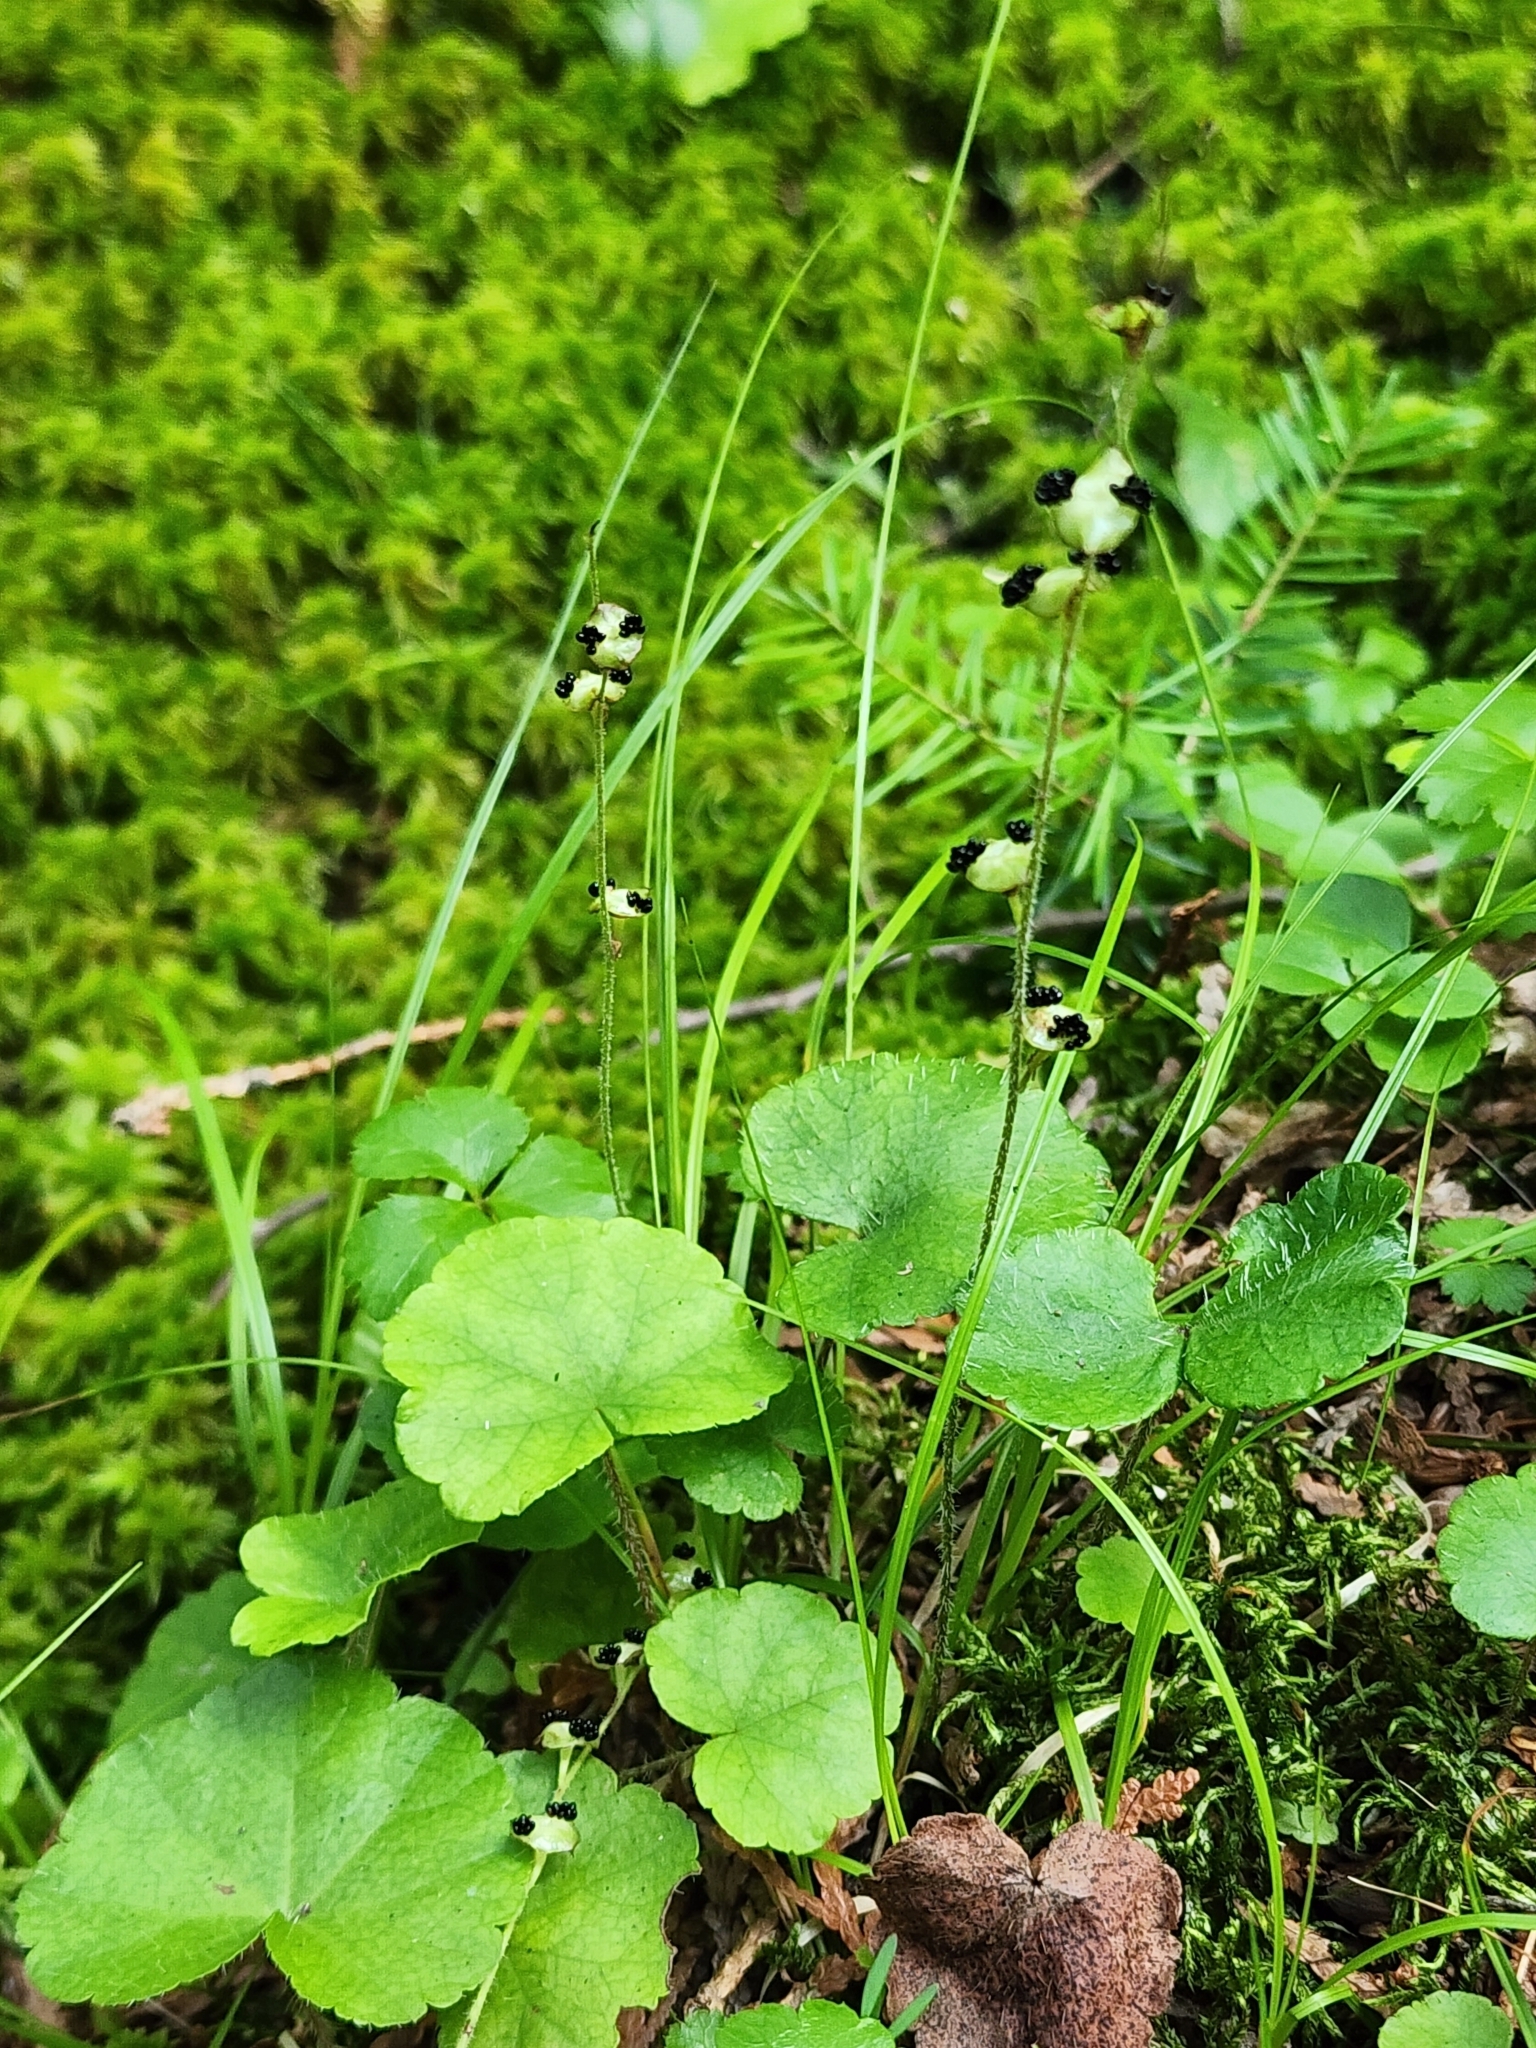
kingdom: Plantae
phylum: Tracheophyta
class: Magnoliopsida
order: Saxifragales
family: Saxifragaceae
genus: Mitella
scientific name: Mitella nuda
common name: Bare-stemmed bishop's-cap
